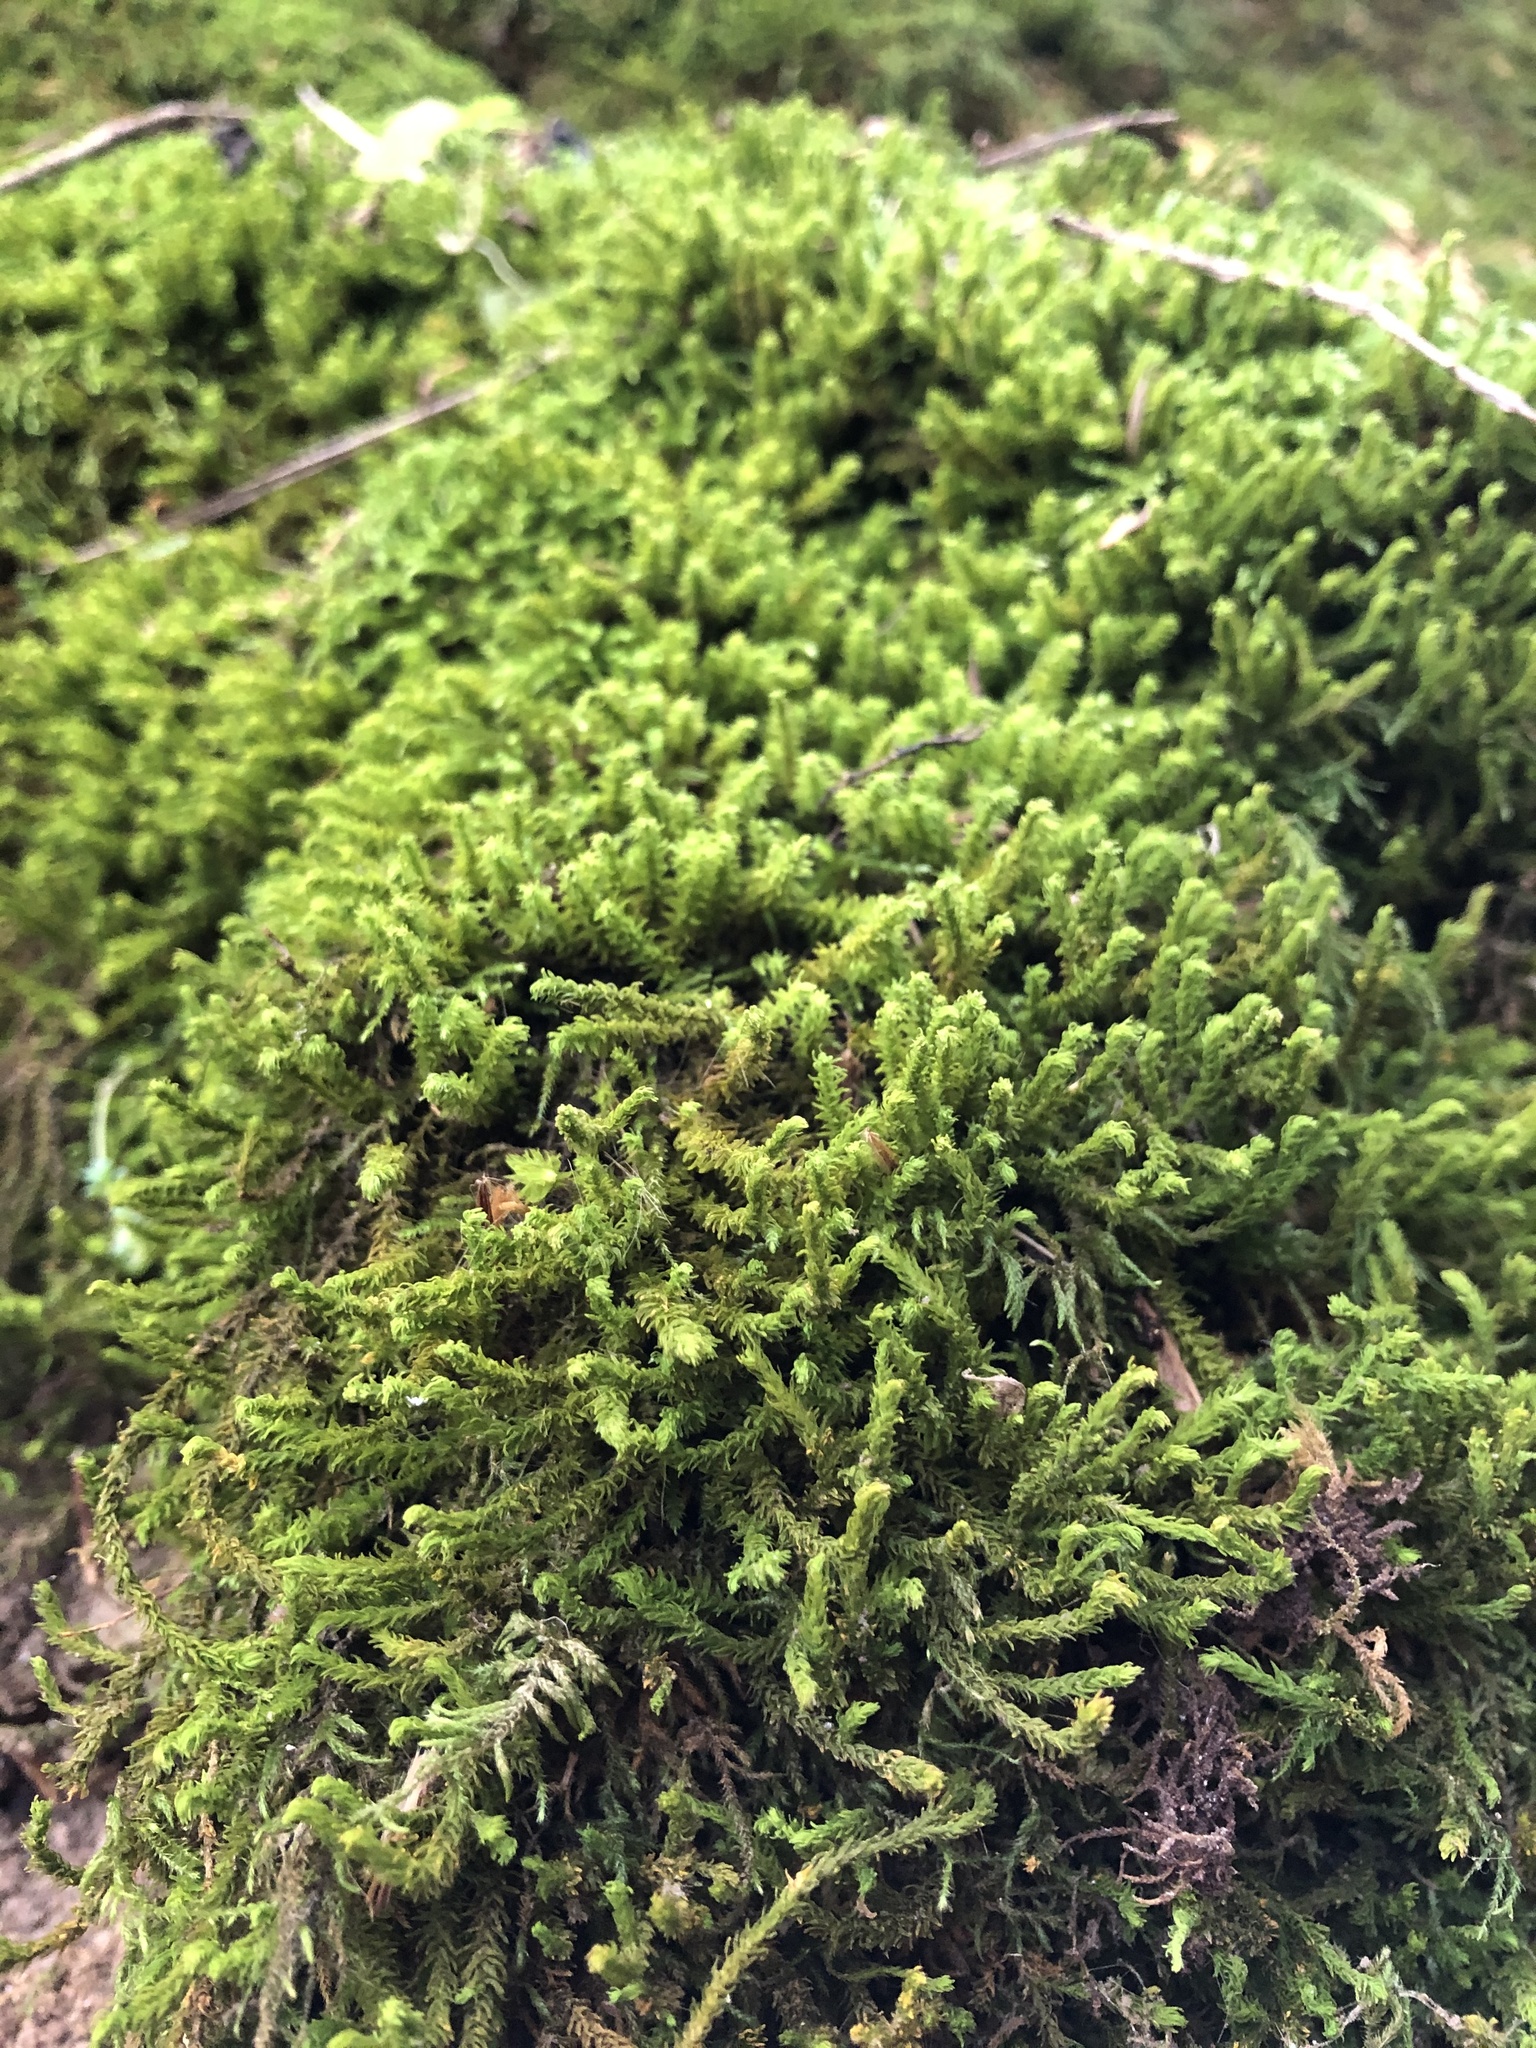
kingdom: Plantae
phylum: Bryophyta
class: Bryopsida
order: Hypnales
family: Anomodontaceae
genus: Anomodon
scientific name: Anomodon viticulosus
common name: Tall anomodon
